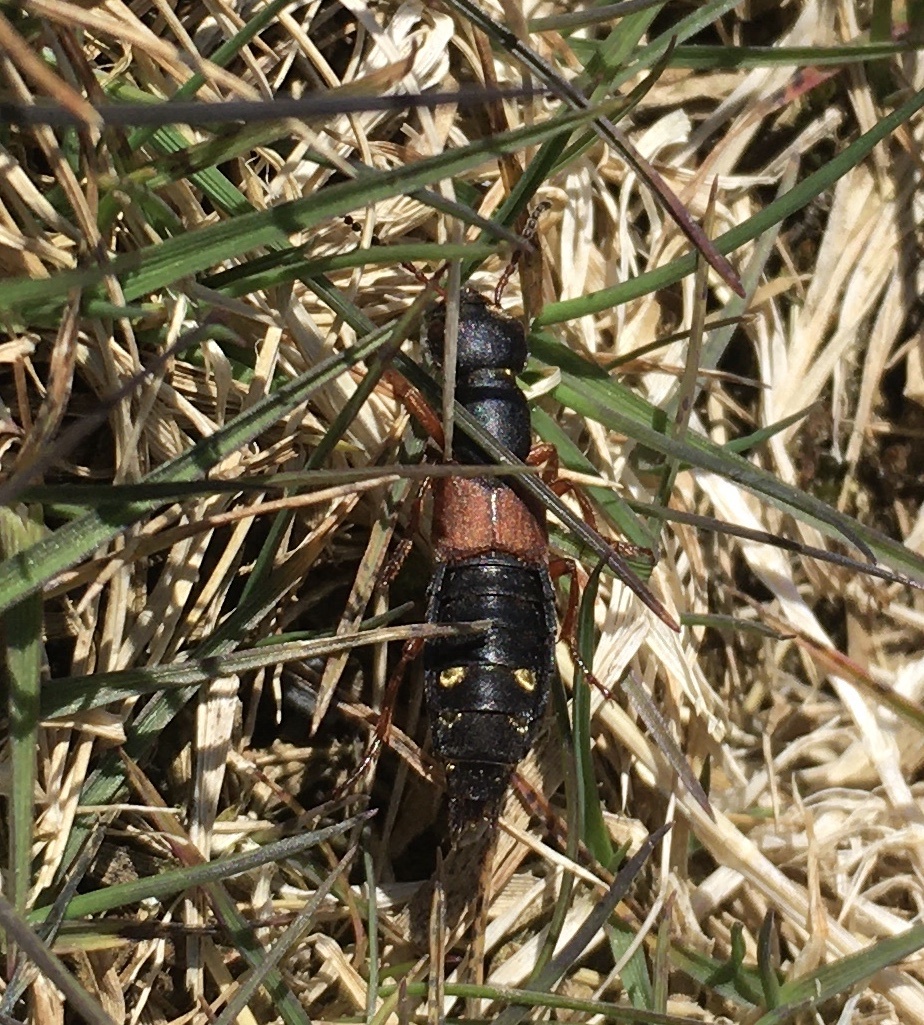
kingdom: Animalia
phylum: Arthropoda
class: Insecta
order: Coleoptera
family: Staphylinidae
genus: Staphylinus
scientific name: Staphylinus erythropterus
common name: Staph beetle
